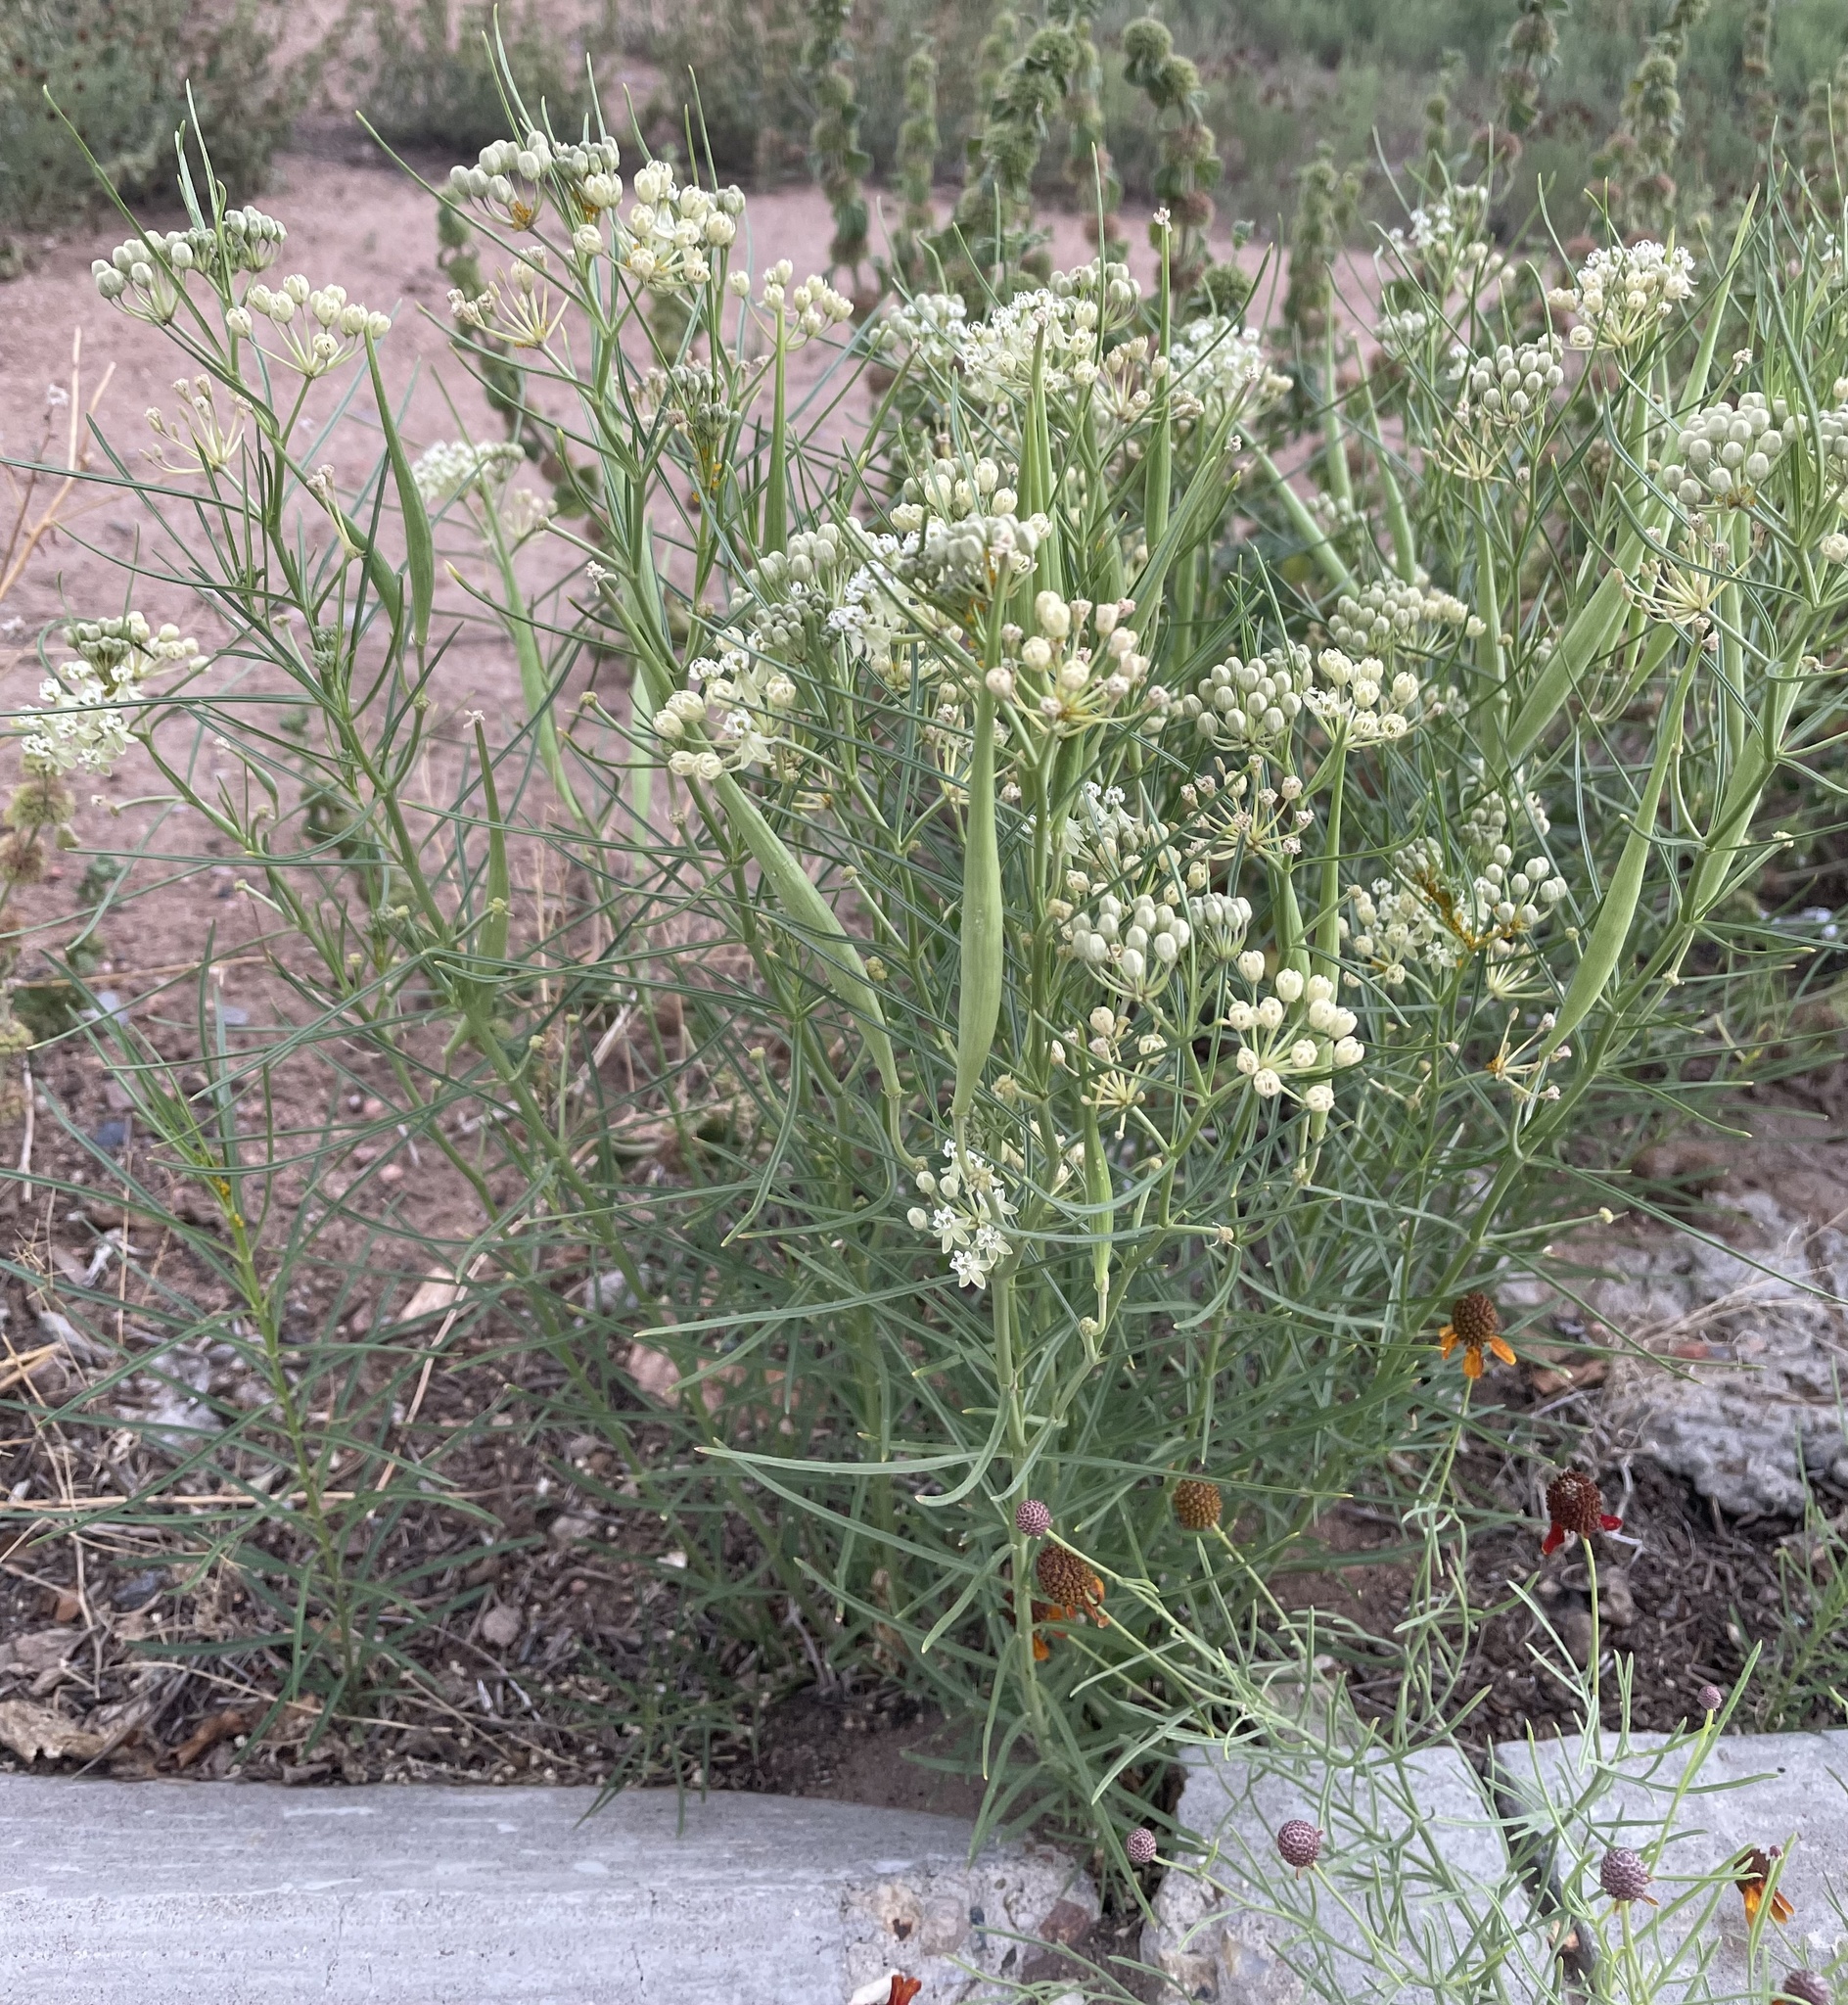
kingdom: Plantae
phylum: Tracheophyta
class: Magnoliopsida
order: Gentianales
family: Apocynaceae
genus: Asclepias
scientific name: Asclepias subverticillata
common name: Horsetail milkweed
